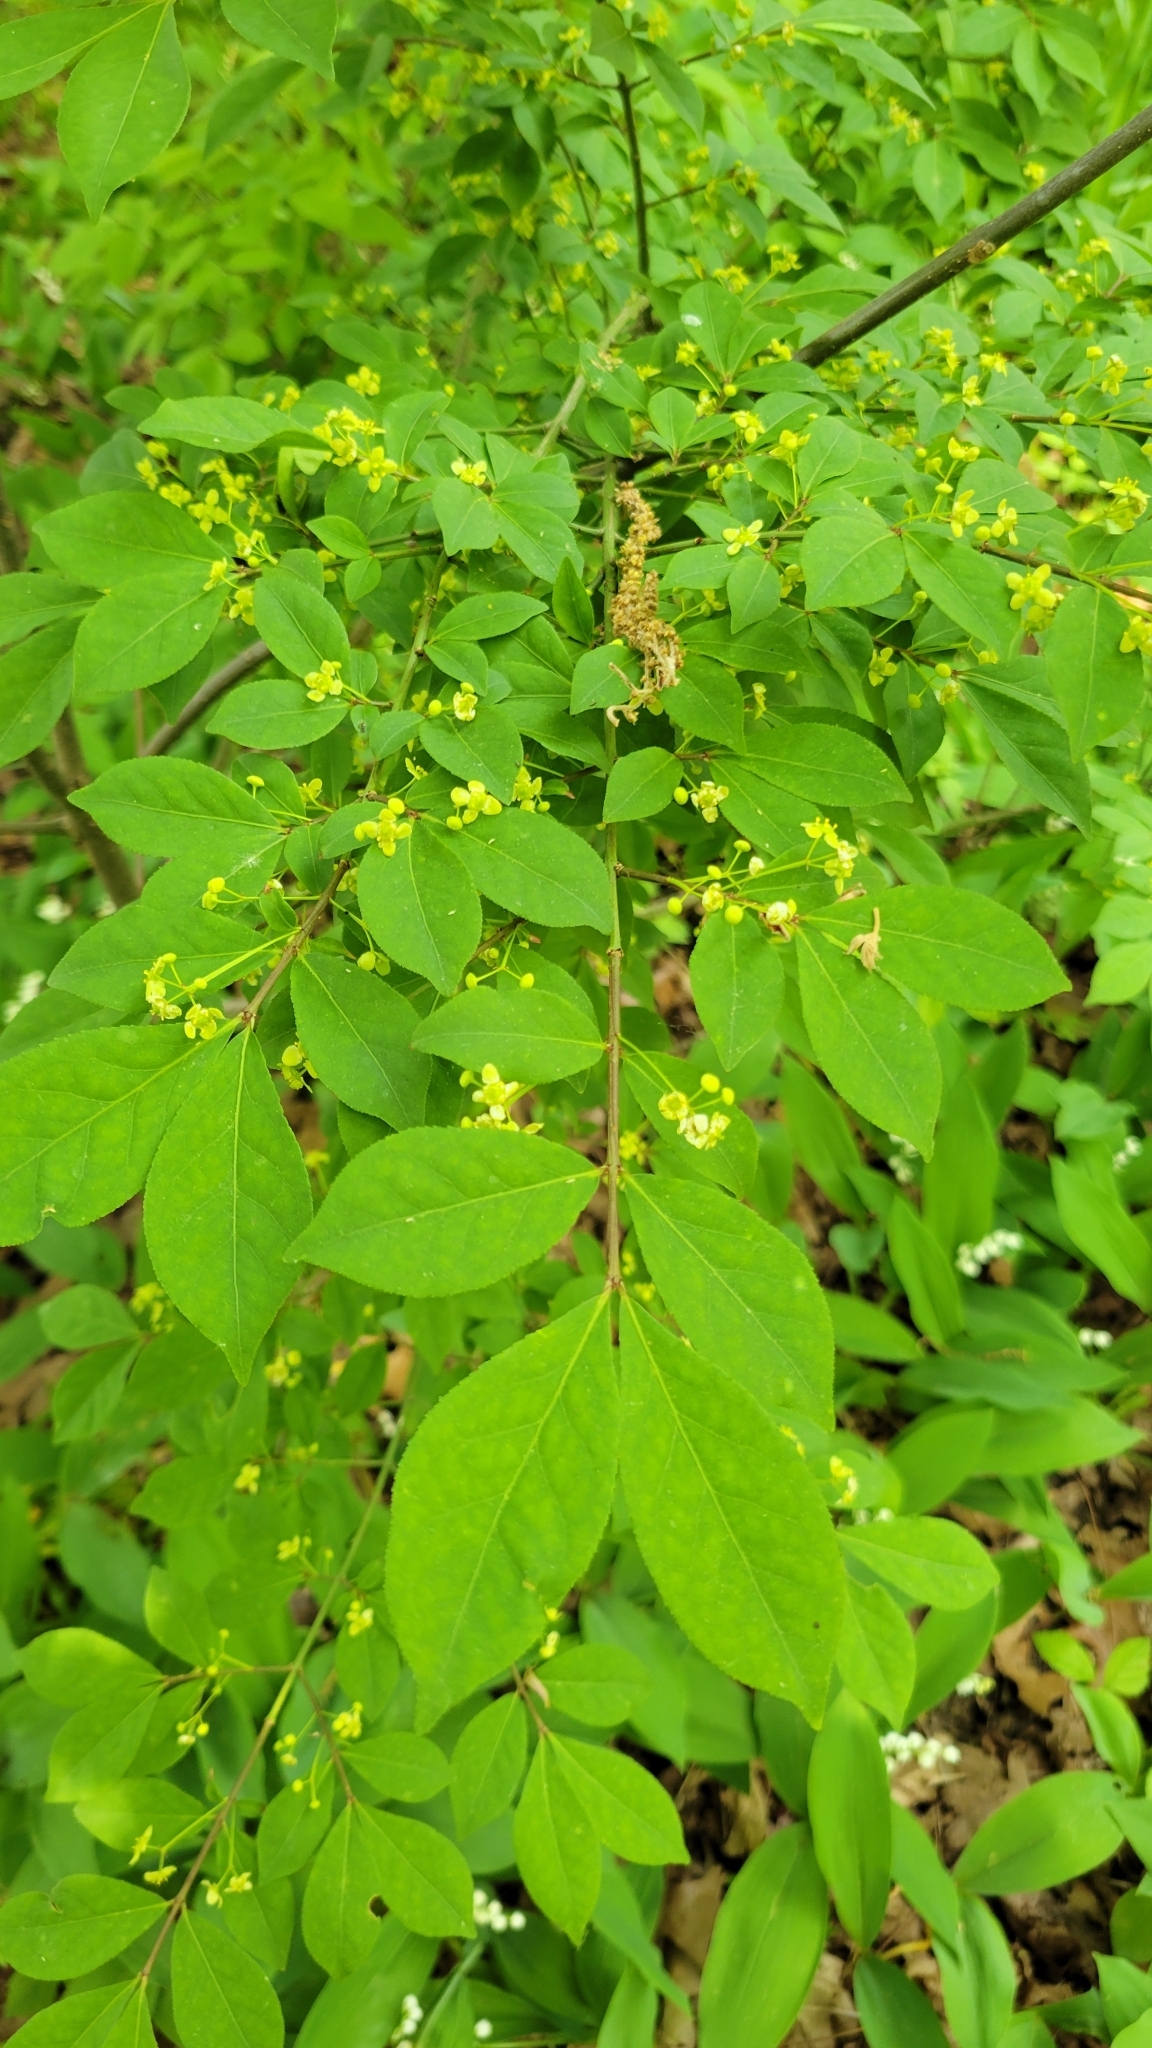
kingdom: Plantae
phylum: Tracheophyta
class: Magnoliopsida
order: Celastrales
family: Celastraceae
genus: Euonymus
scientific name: Euonymus alatus
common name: Winged euonymus
